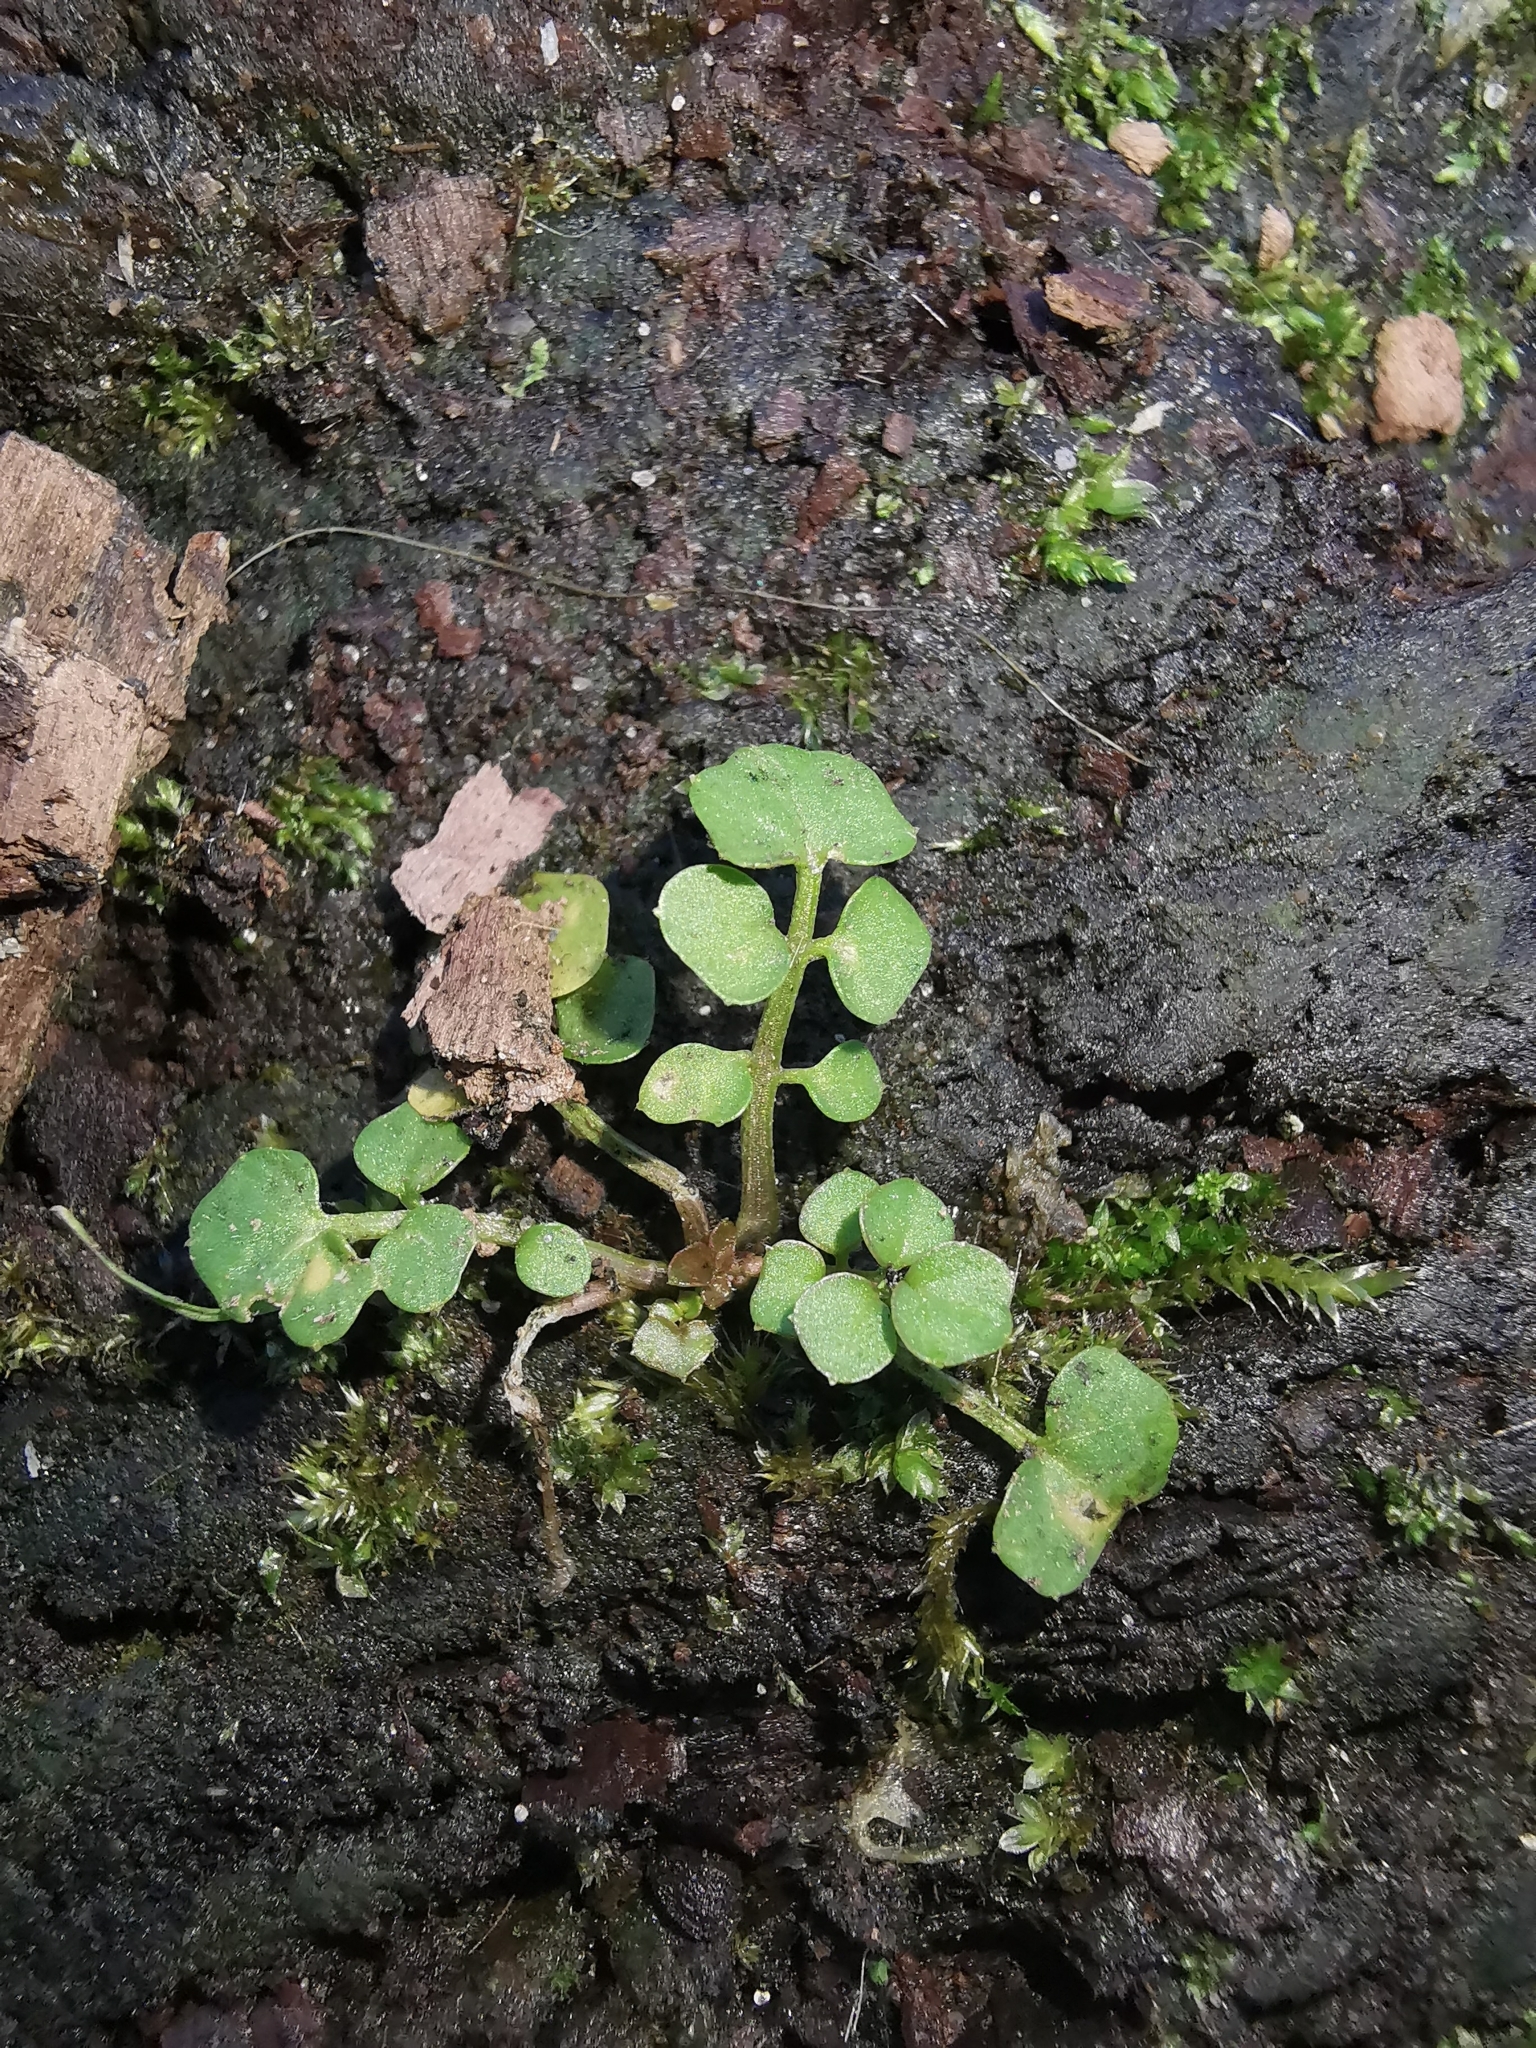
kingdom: Plantae
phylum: Tracheophyta
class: Magnoliopsida
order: Brassicales
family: Brassicaceae
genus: Cardamine
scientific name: Cardamine hirsuta
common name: Hairy bittercress
